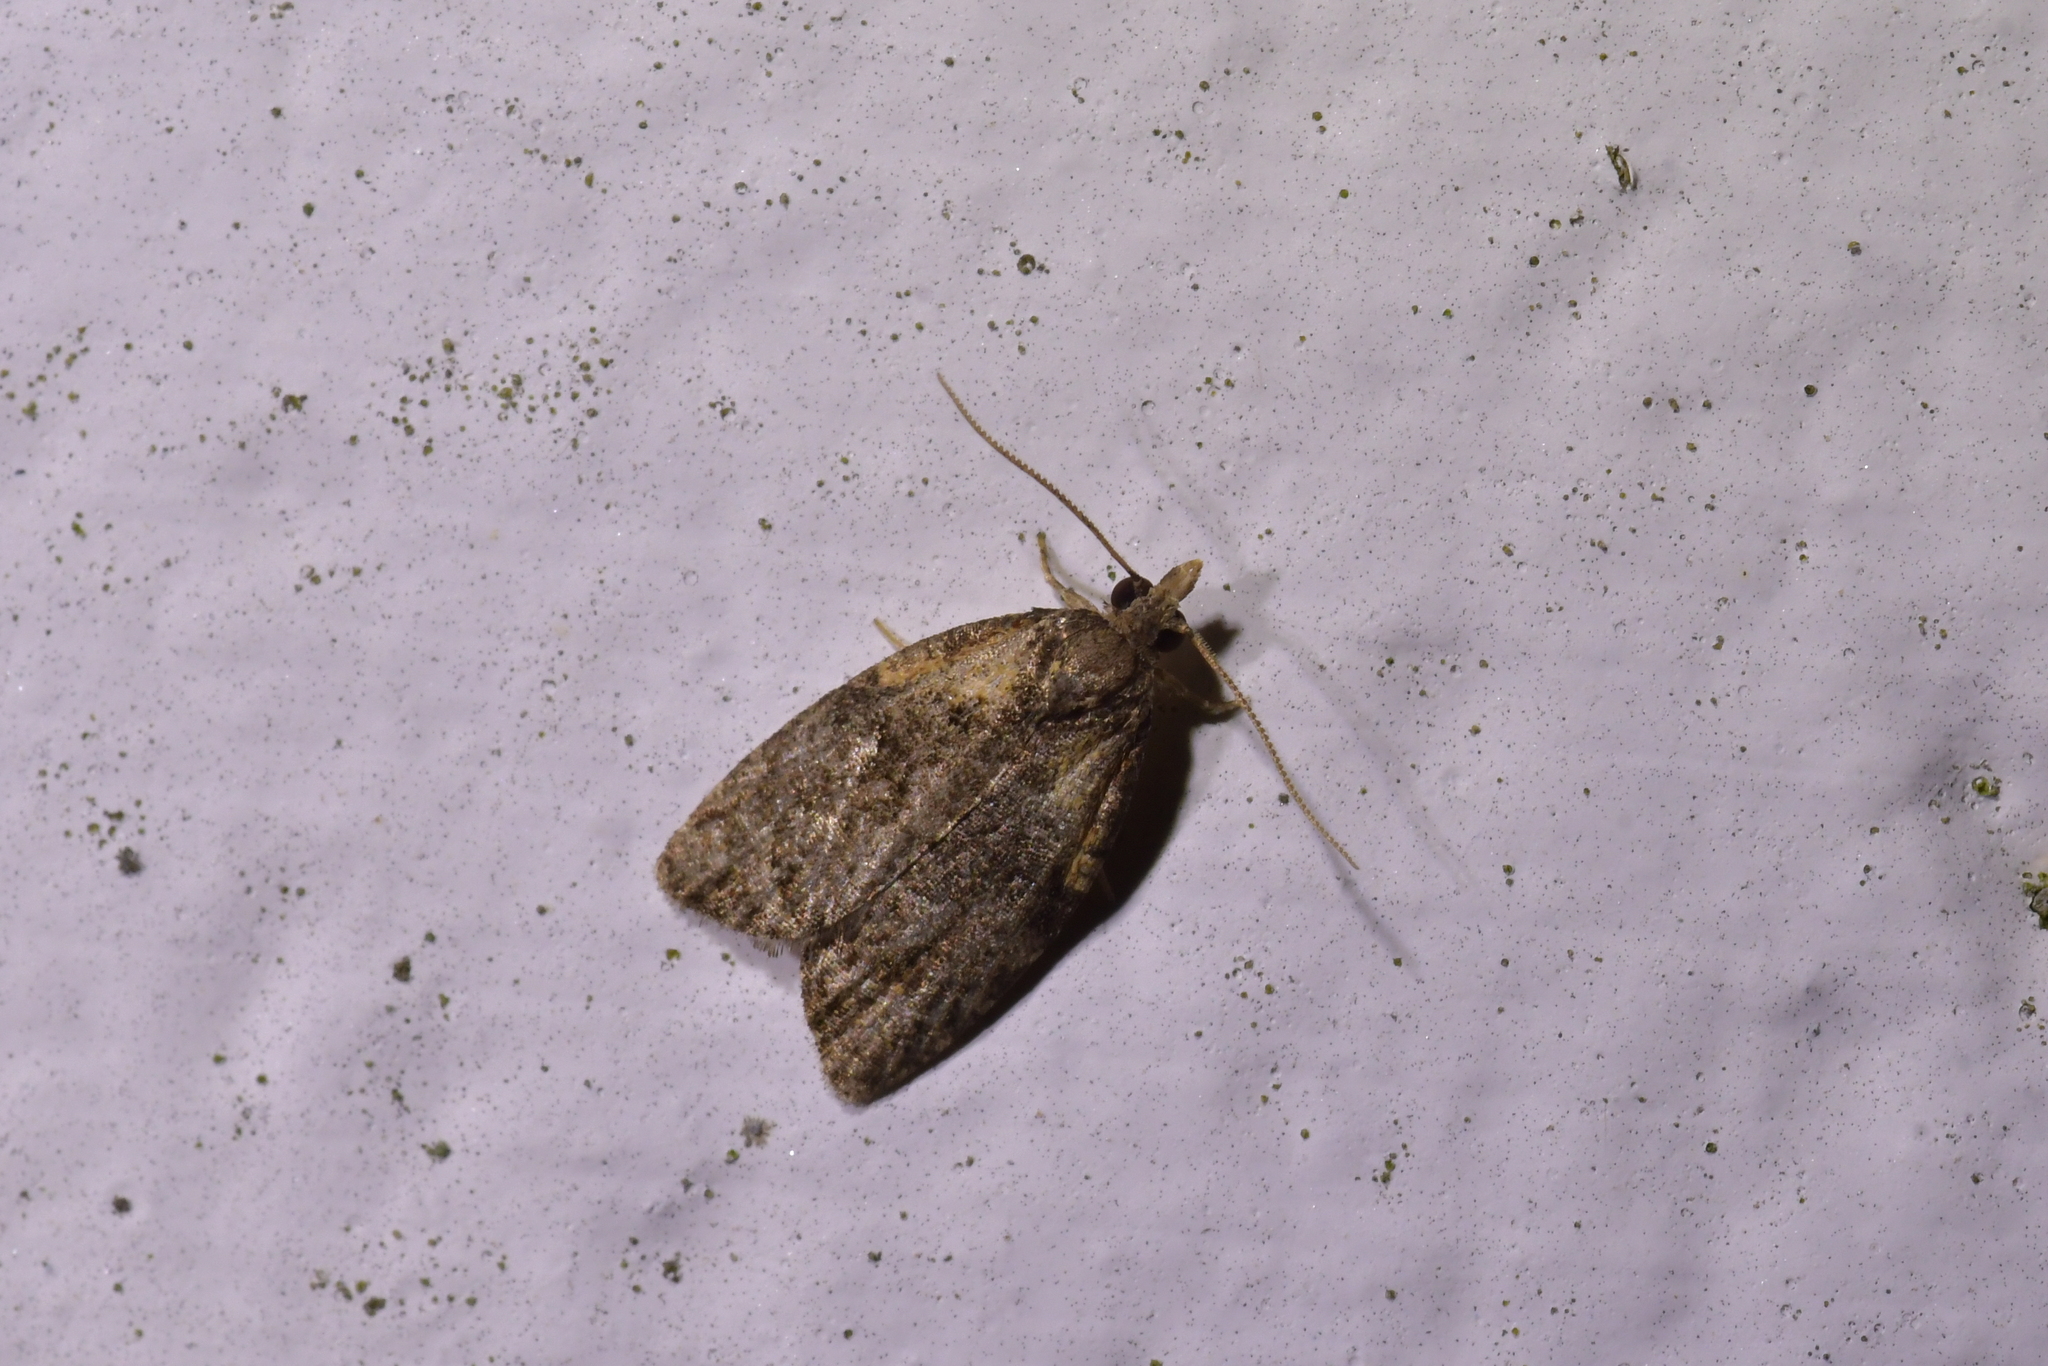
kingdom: Animalia
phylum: Arthropoda
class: Insecta
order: Lepidoptera
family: Tortricidae
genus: Capua
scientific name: Capua intractana
